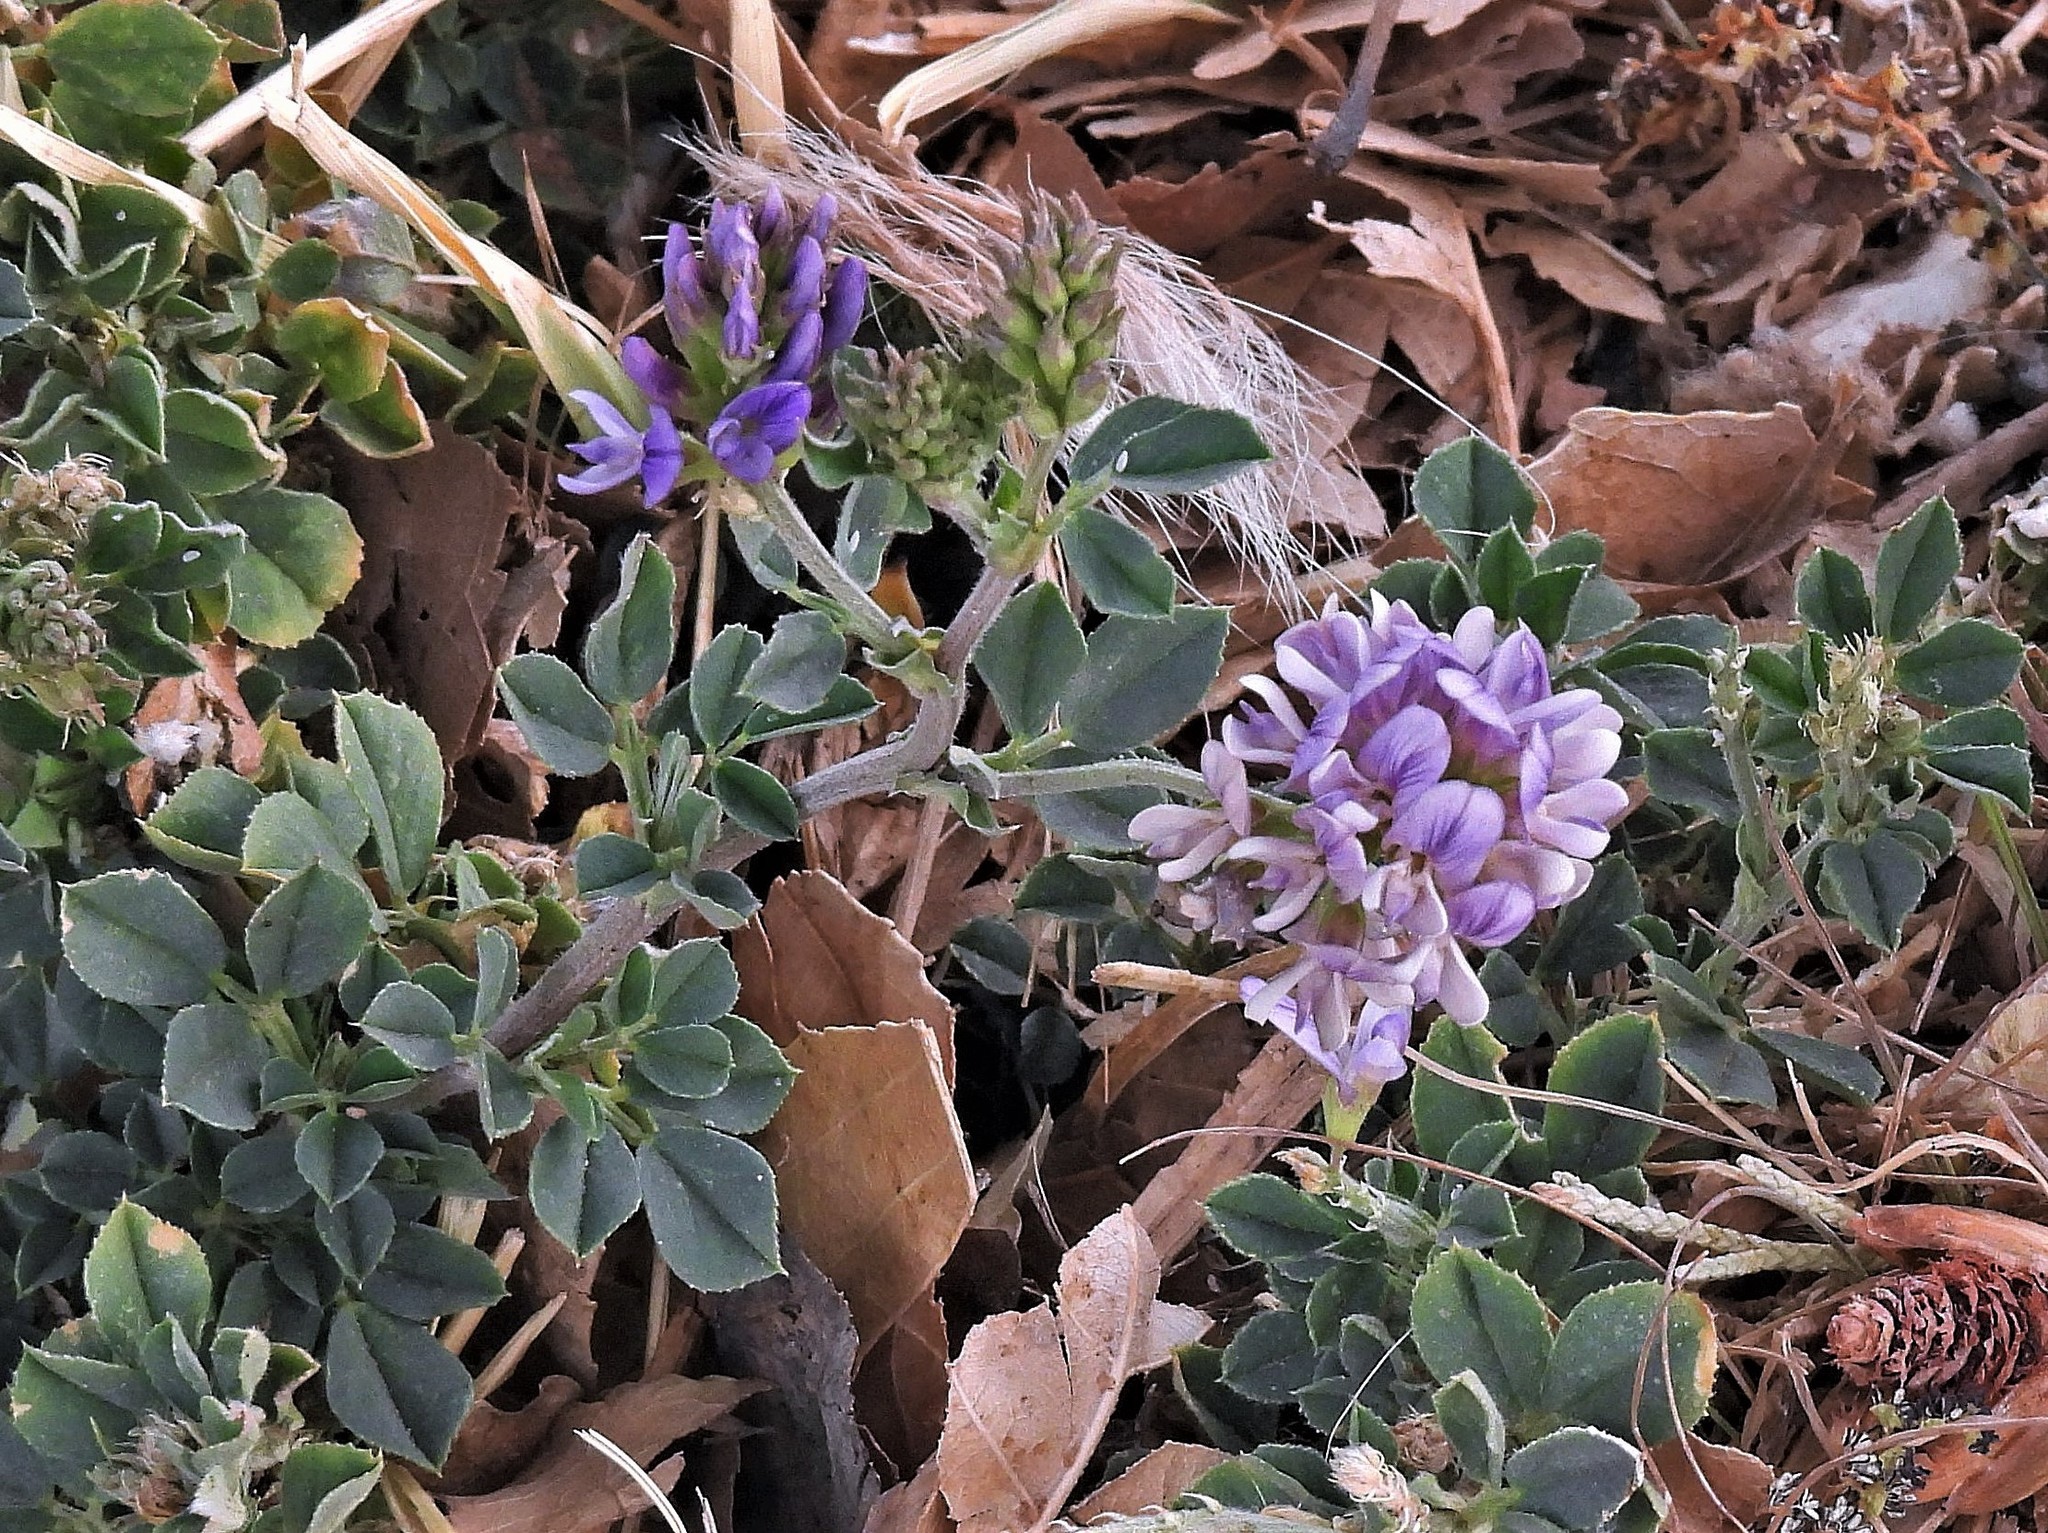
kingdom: Plantae
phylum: Tracheophyta
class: Magnoliopsida
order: Fabales
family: Fabaceae
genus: Medicago
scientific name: Medicago sativa
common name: Alfalfa
